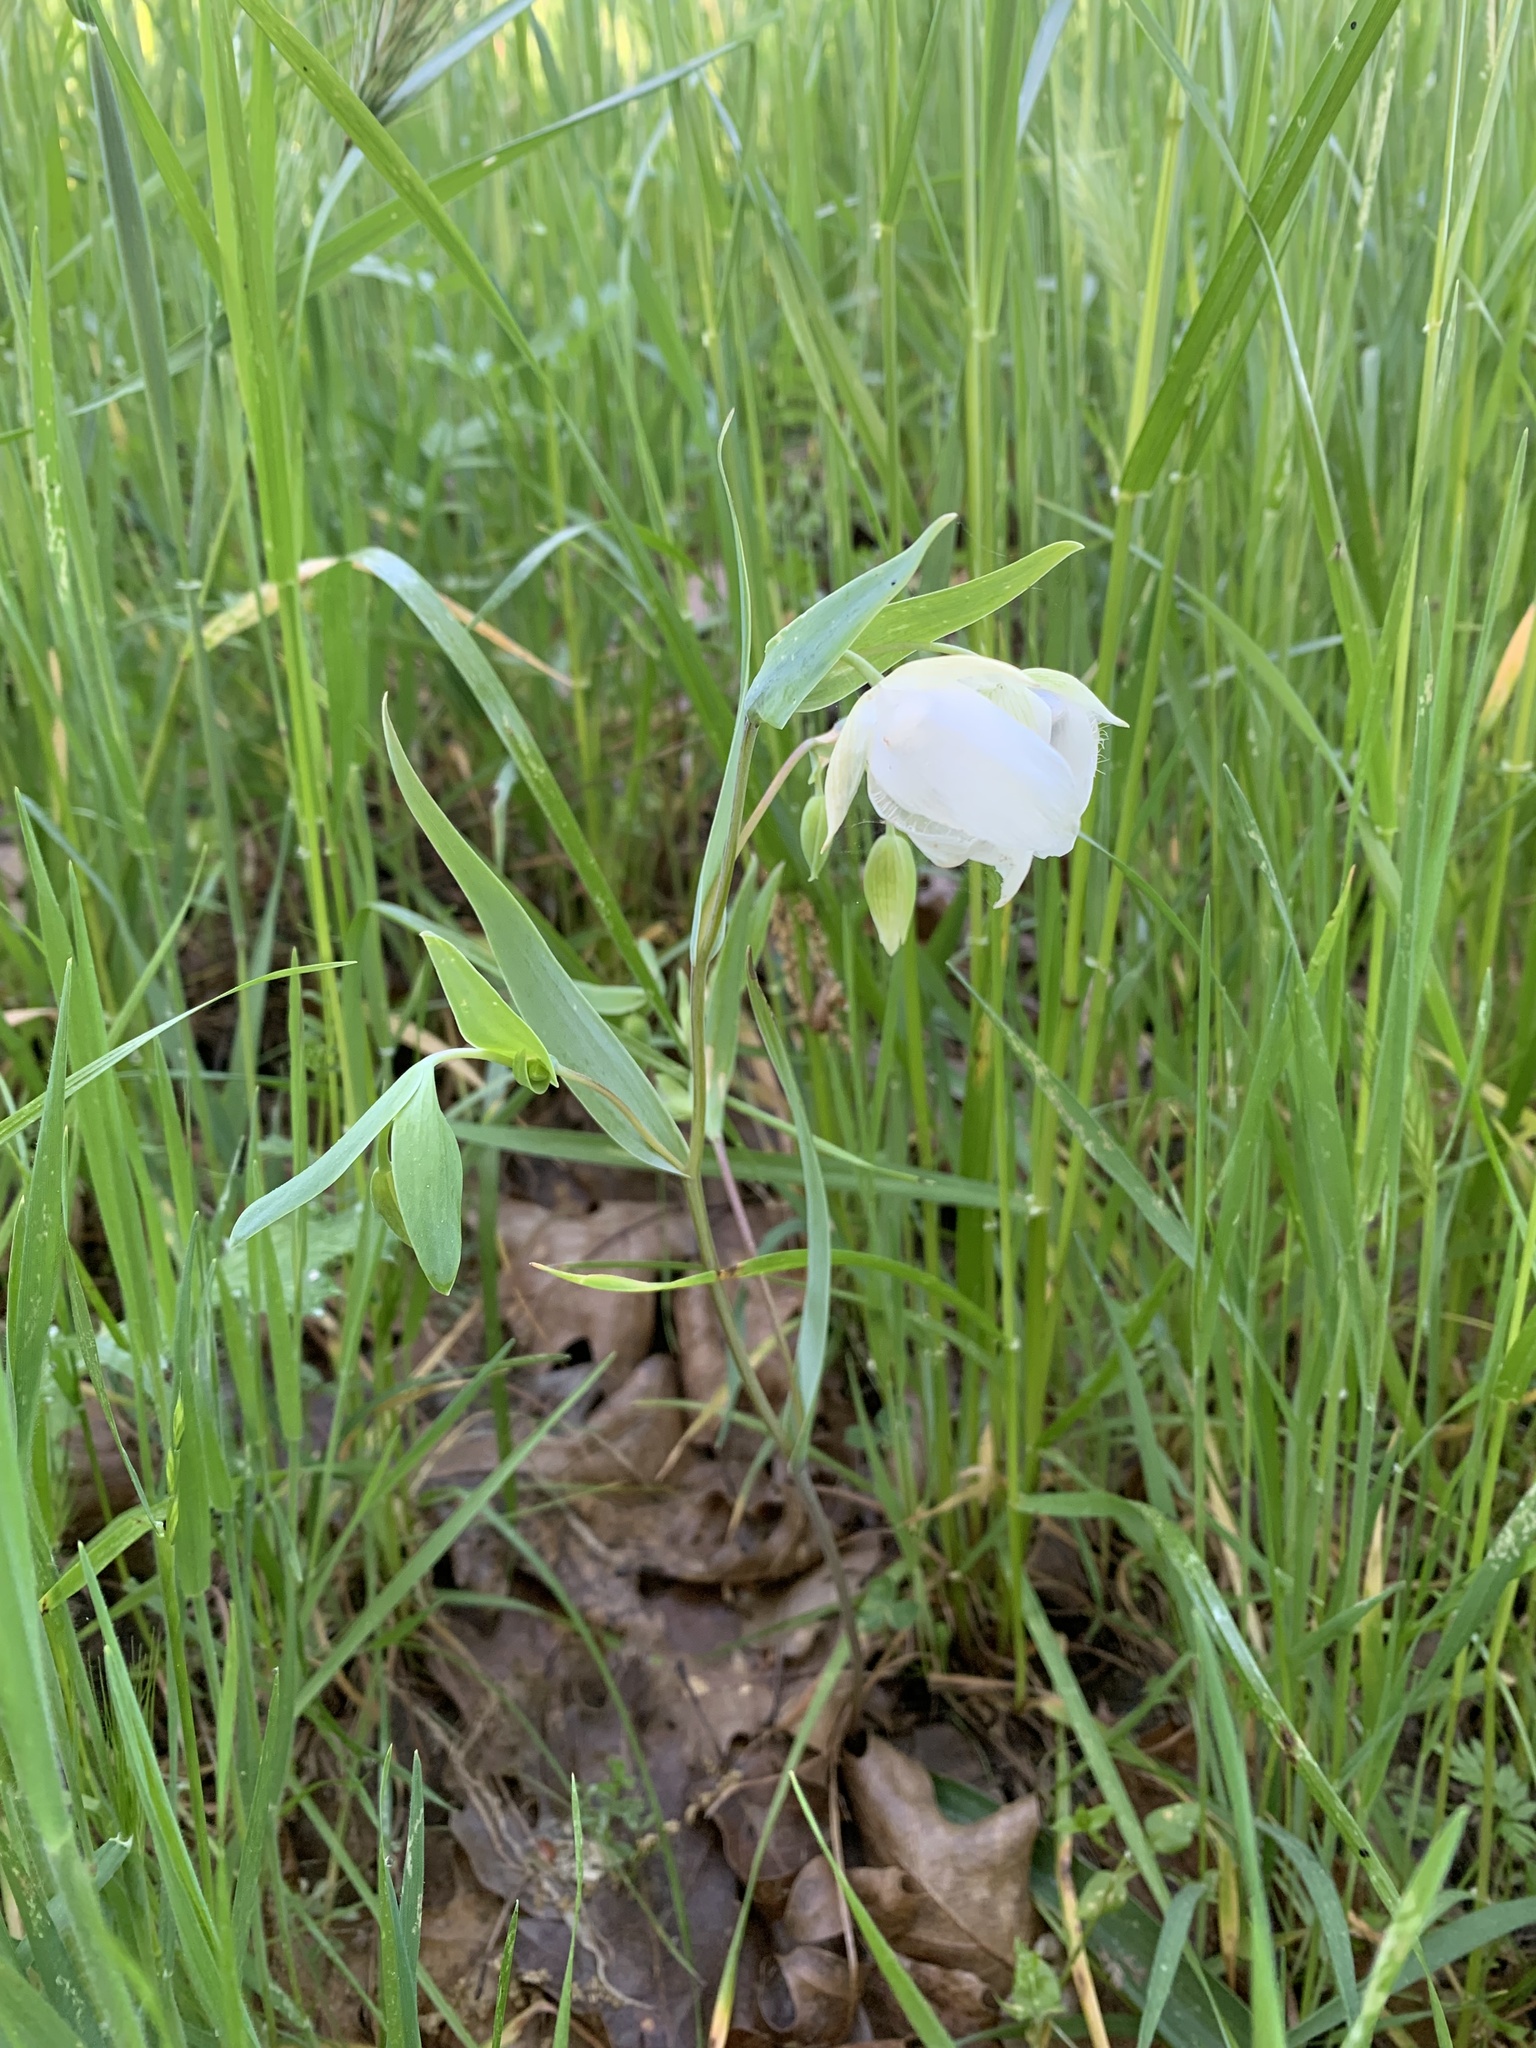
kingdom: Plantae
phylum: Tracheophyta
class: Liliopsida
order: Liliales
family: Liliaceae
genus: Calochortus
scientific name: Calochortus albus
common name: Fairy-lantern
